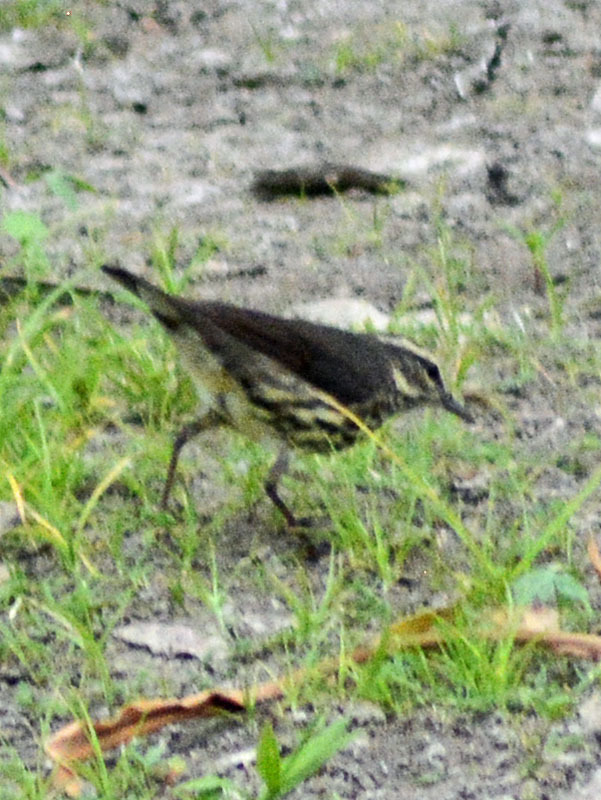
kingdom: Animalia
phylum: Chordata
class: Aves
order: Passeriformes
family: Parulidae
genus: Parkesia
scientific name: Parkesia noveboracensis
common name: Northern waterthrush
